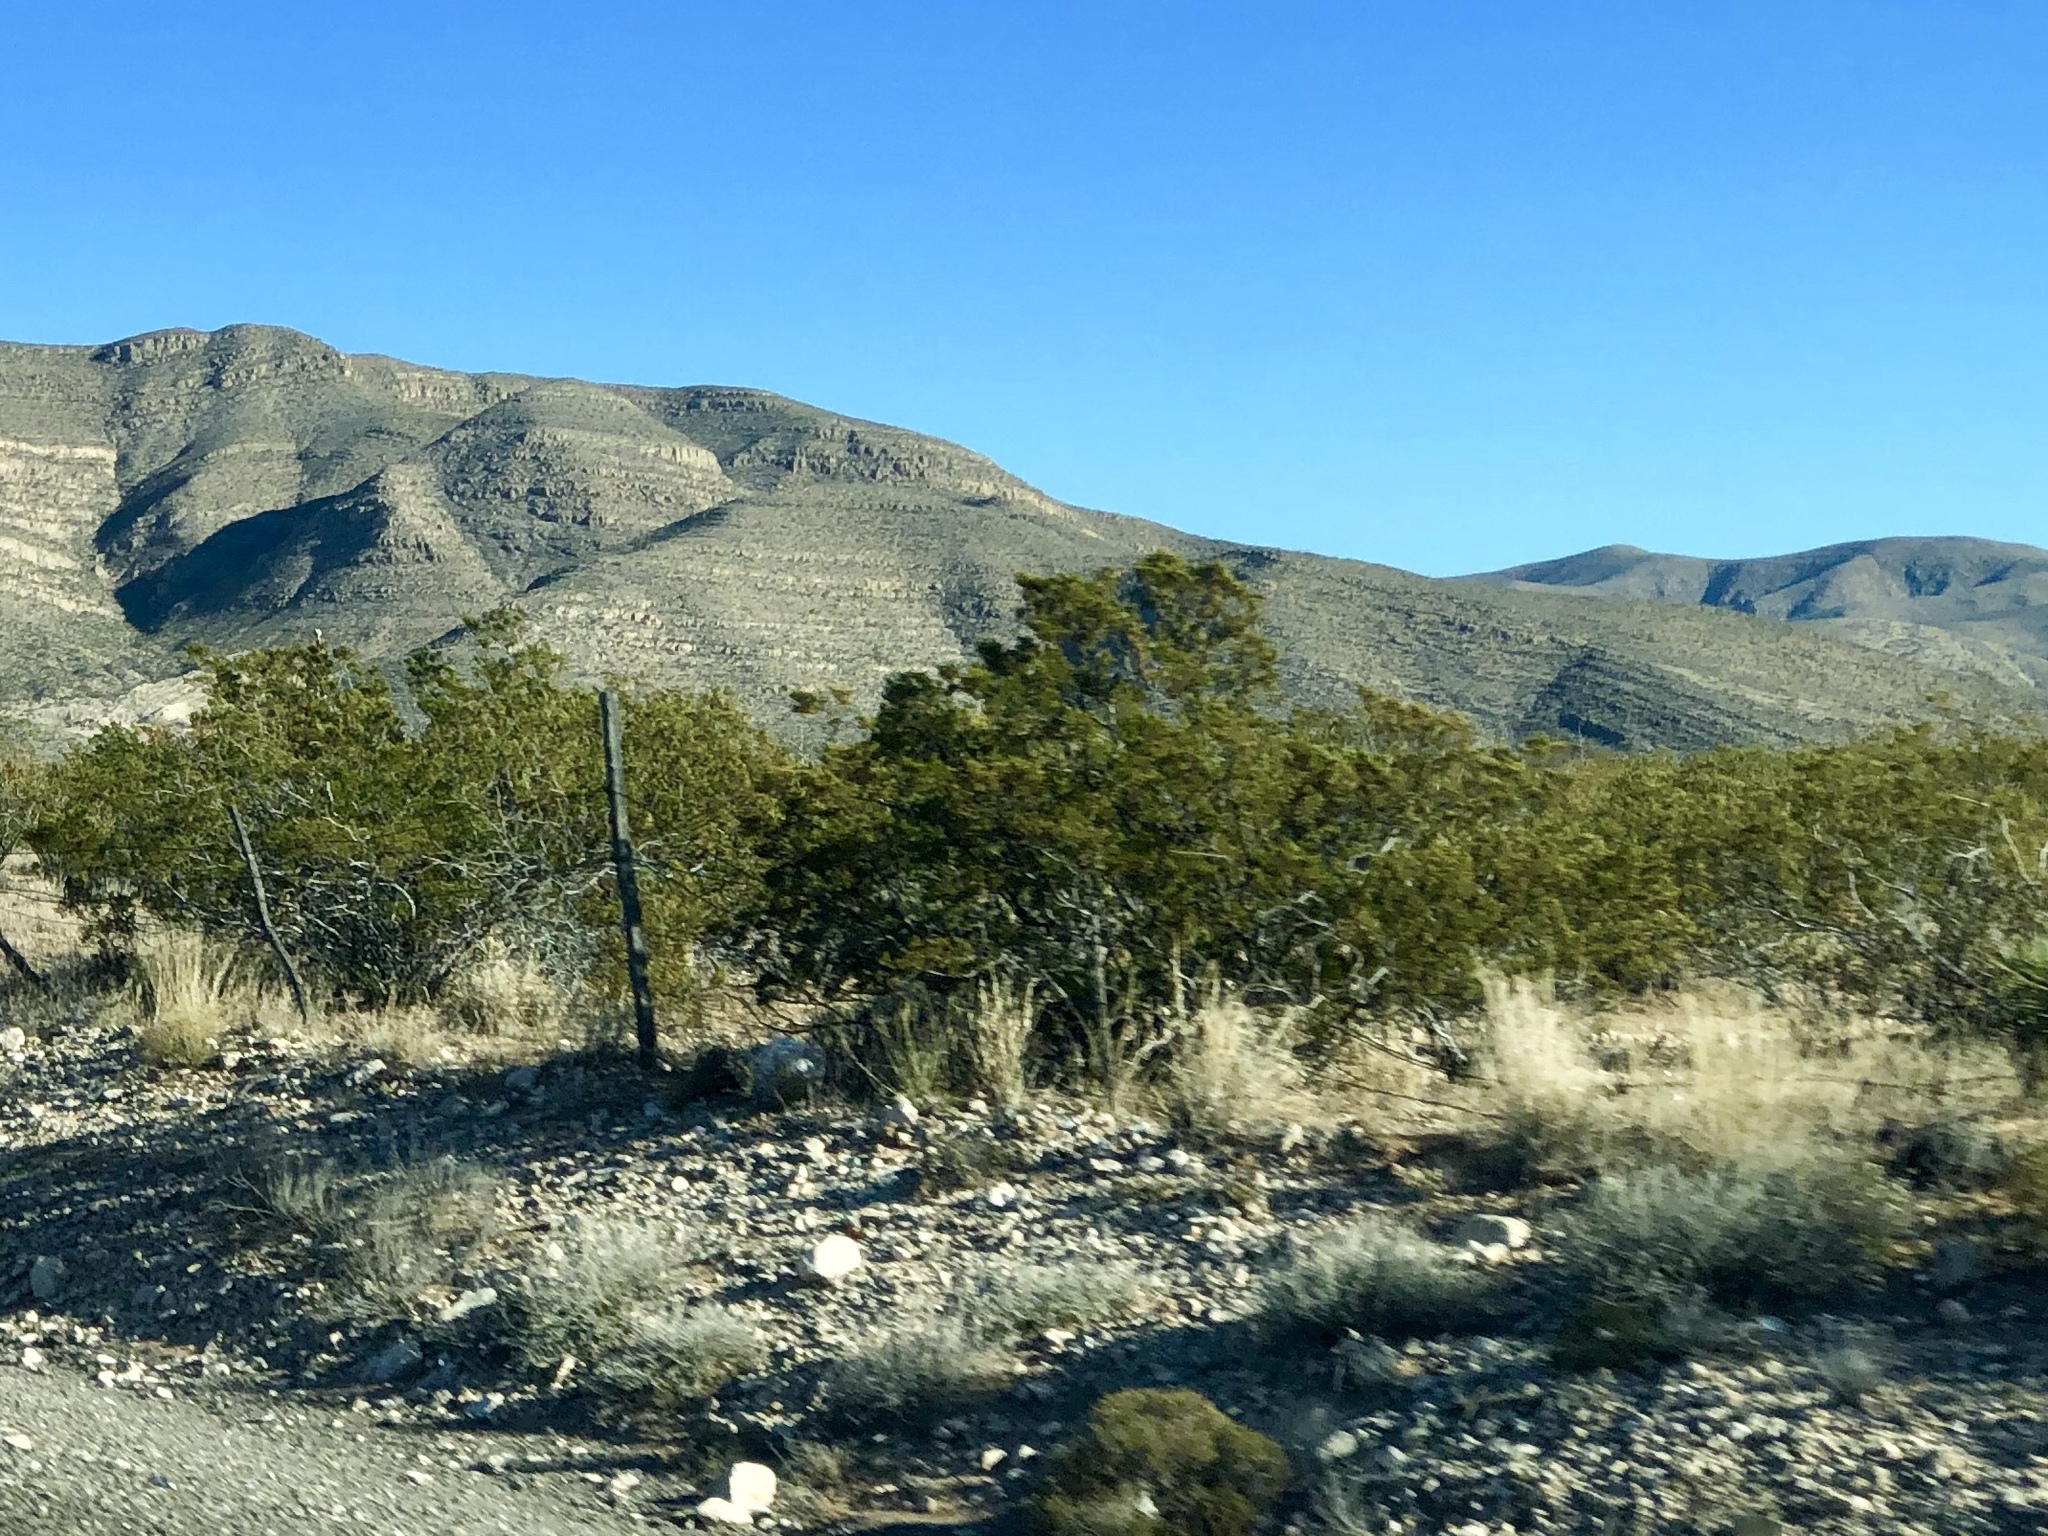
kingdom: Plantae
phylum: Tracheophyta
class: Magnoliopsida
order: Zygophyllales
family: Zygophyllaceae
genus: Larrea
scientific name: Larrea tridentata
